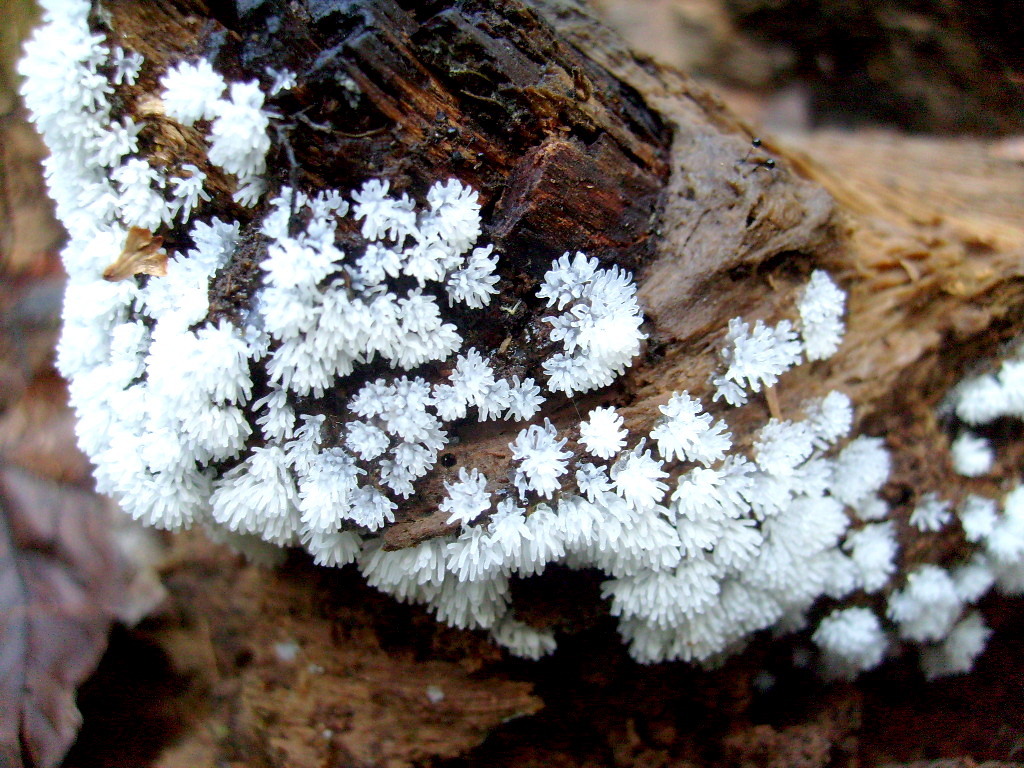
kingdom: Protozoa
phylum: Mycetozoa
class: Protosteliomycetes
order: Ceratiomyxales
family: Ceratiomyxaceae
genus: Ceratiomyxa
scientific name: Ceratiomyxa fruticulosa
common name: Honeycomb coral slime mold
